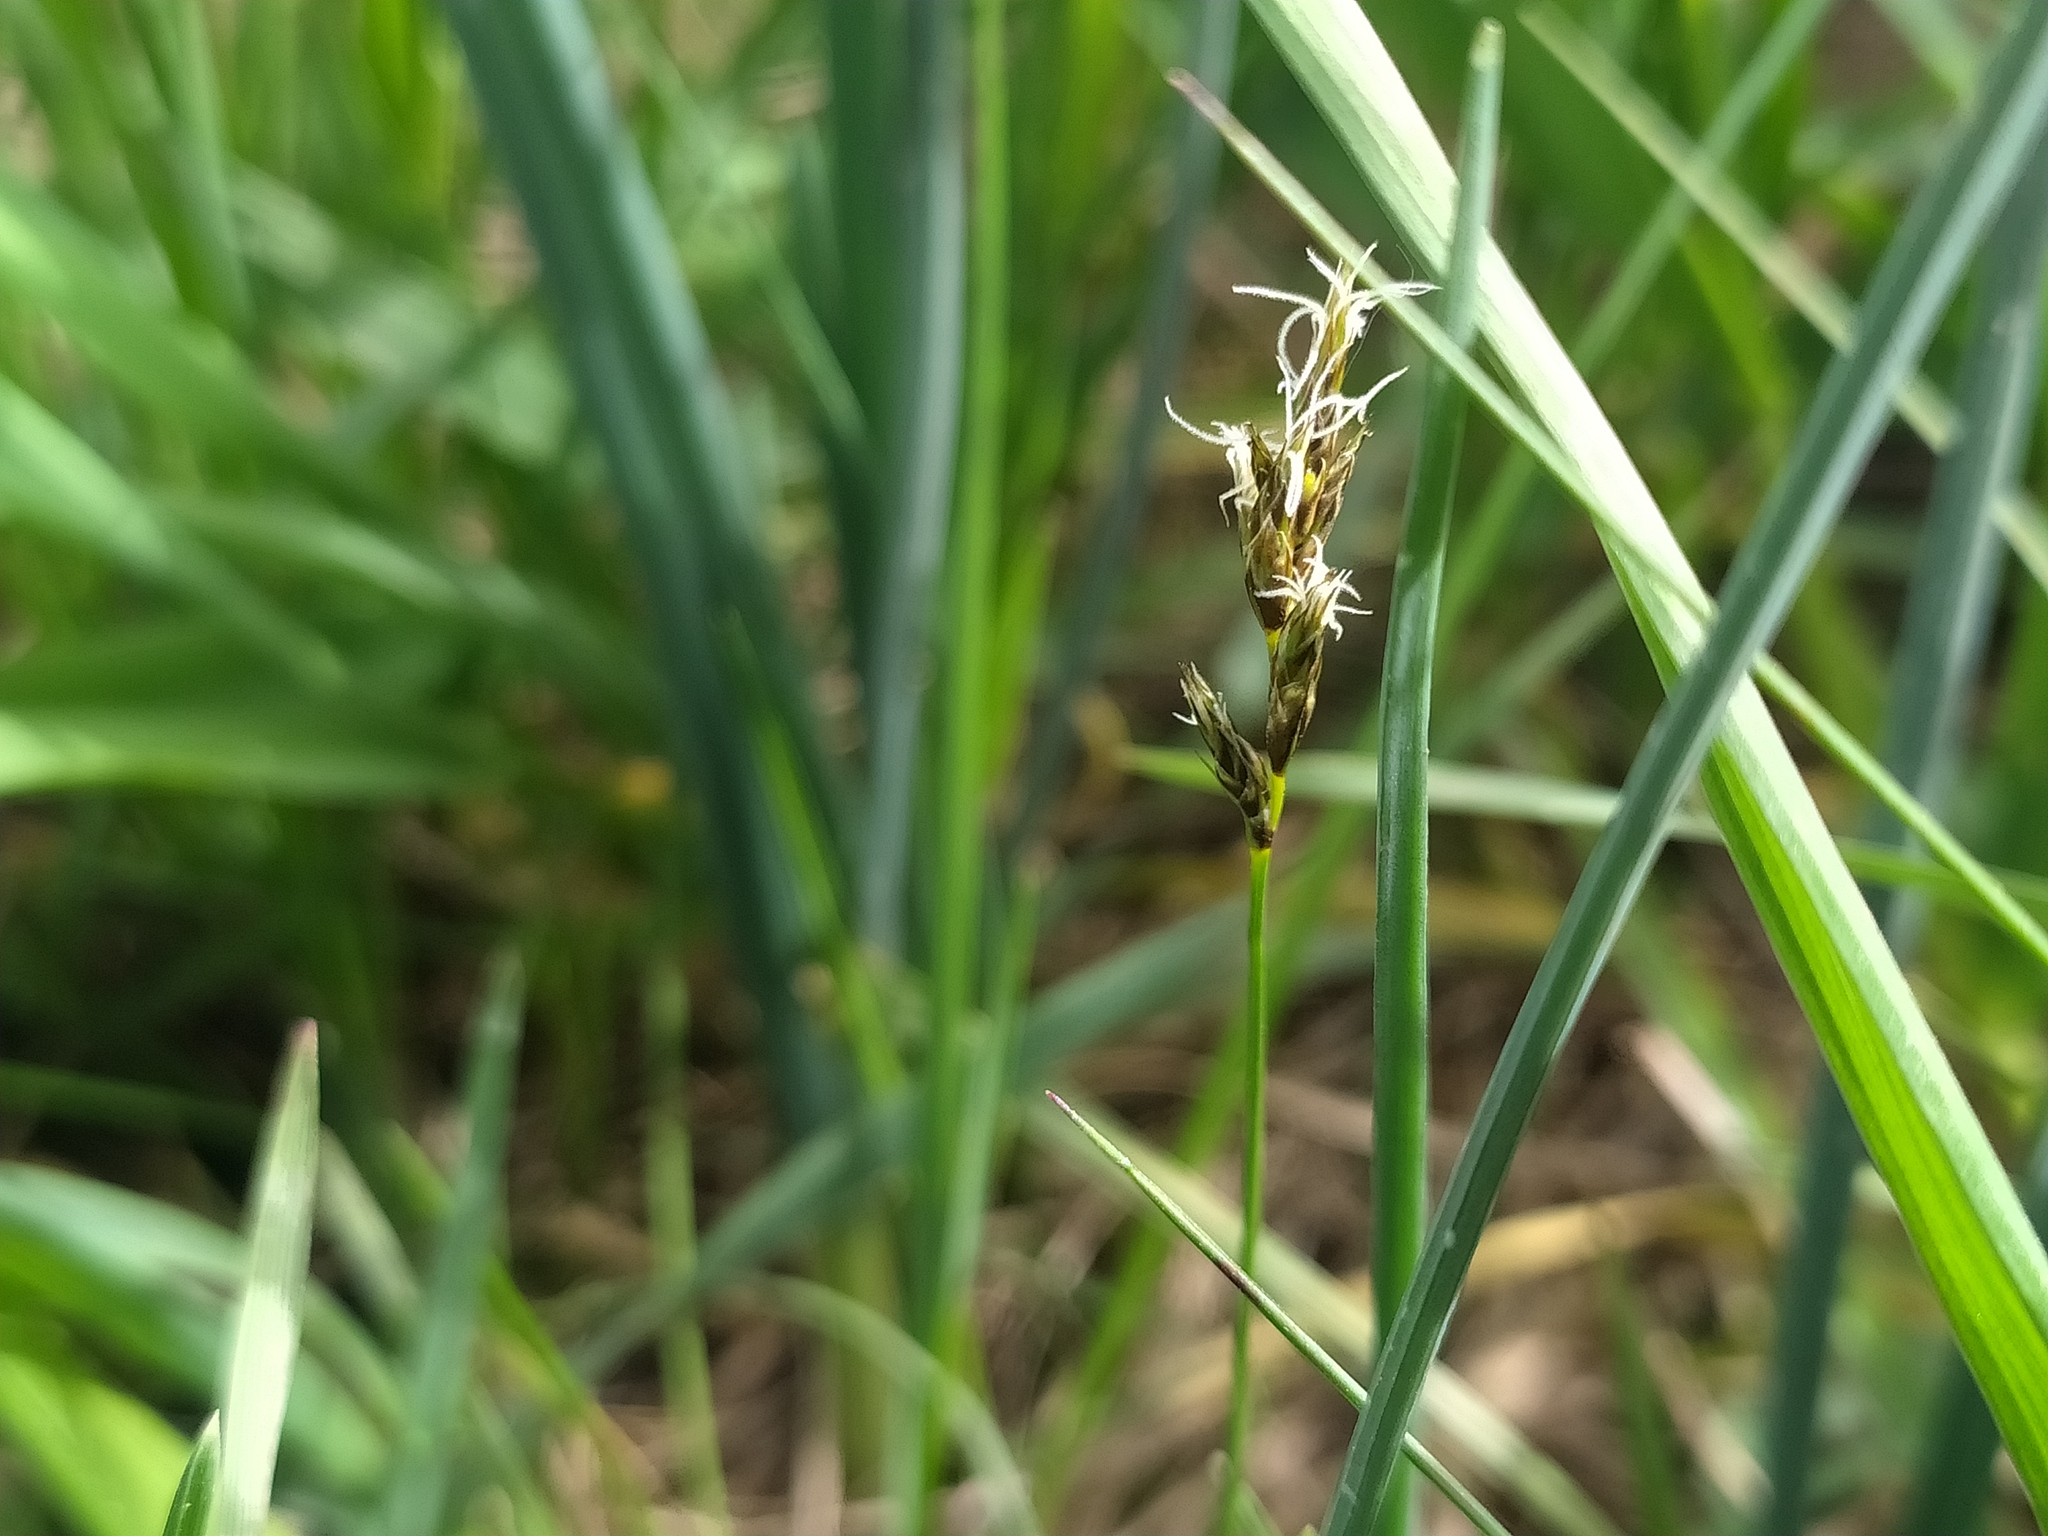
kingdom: Plantae
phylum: Tracheophyta
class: Liliopsida
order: Poales
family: Cyperaceae
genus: Carex
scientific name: Carex praecox
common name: Early sedge
